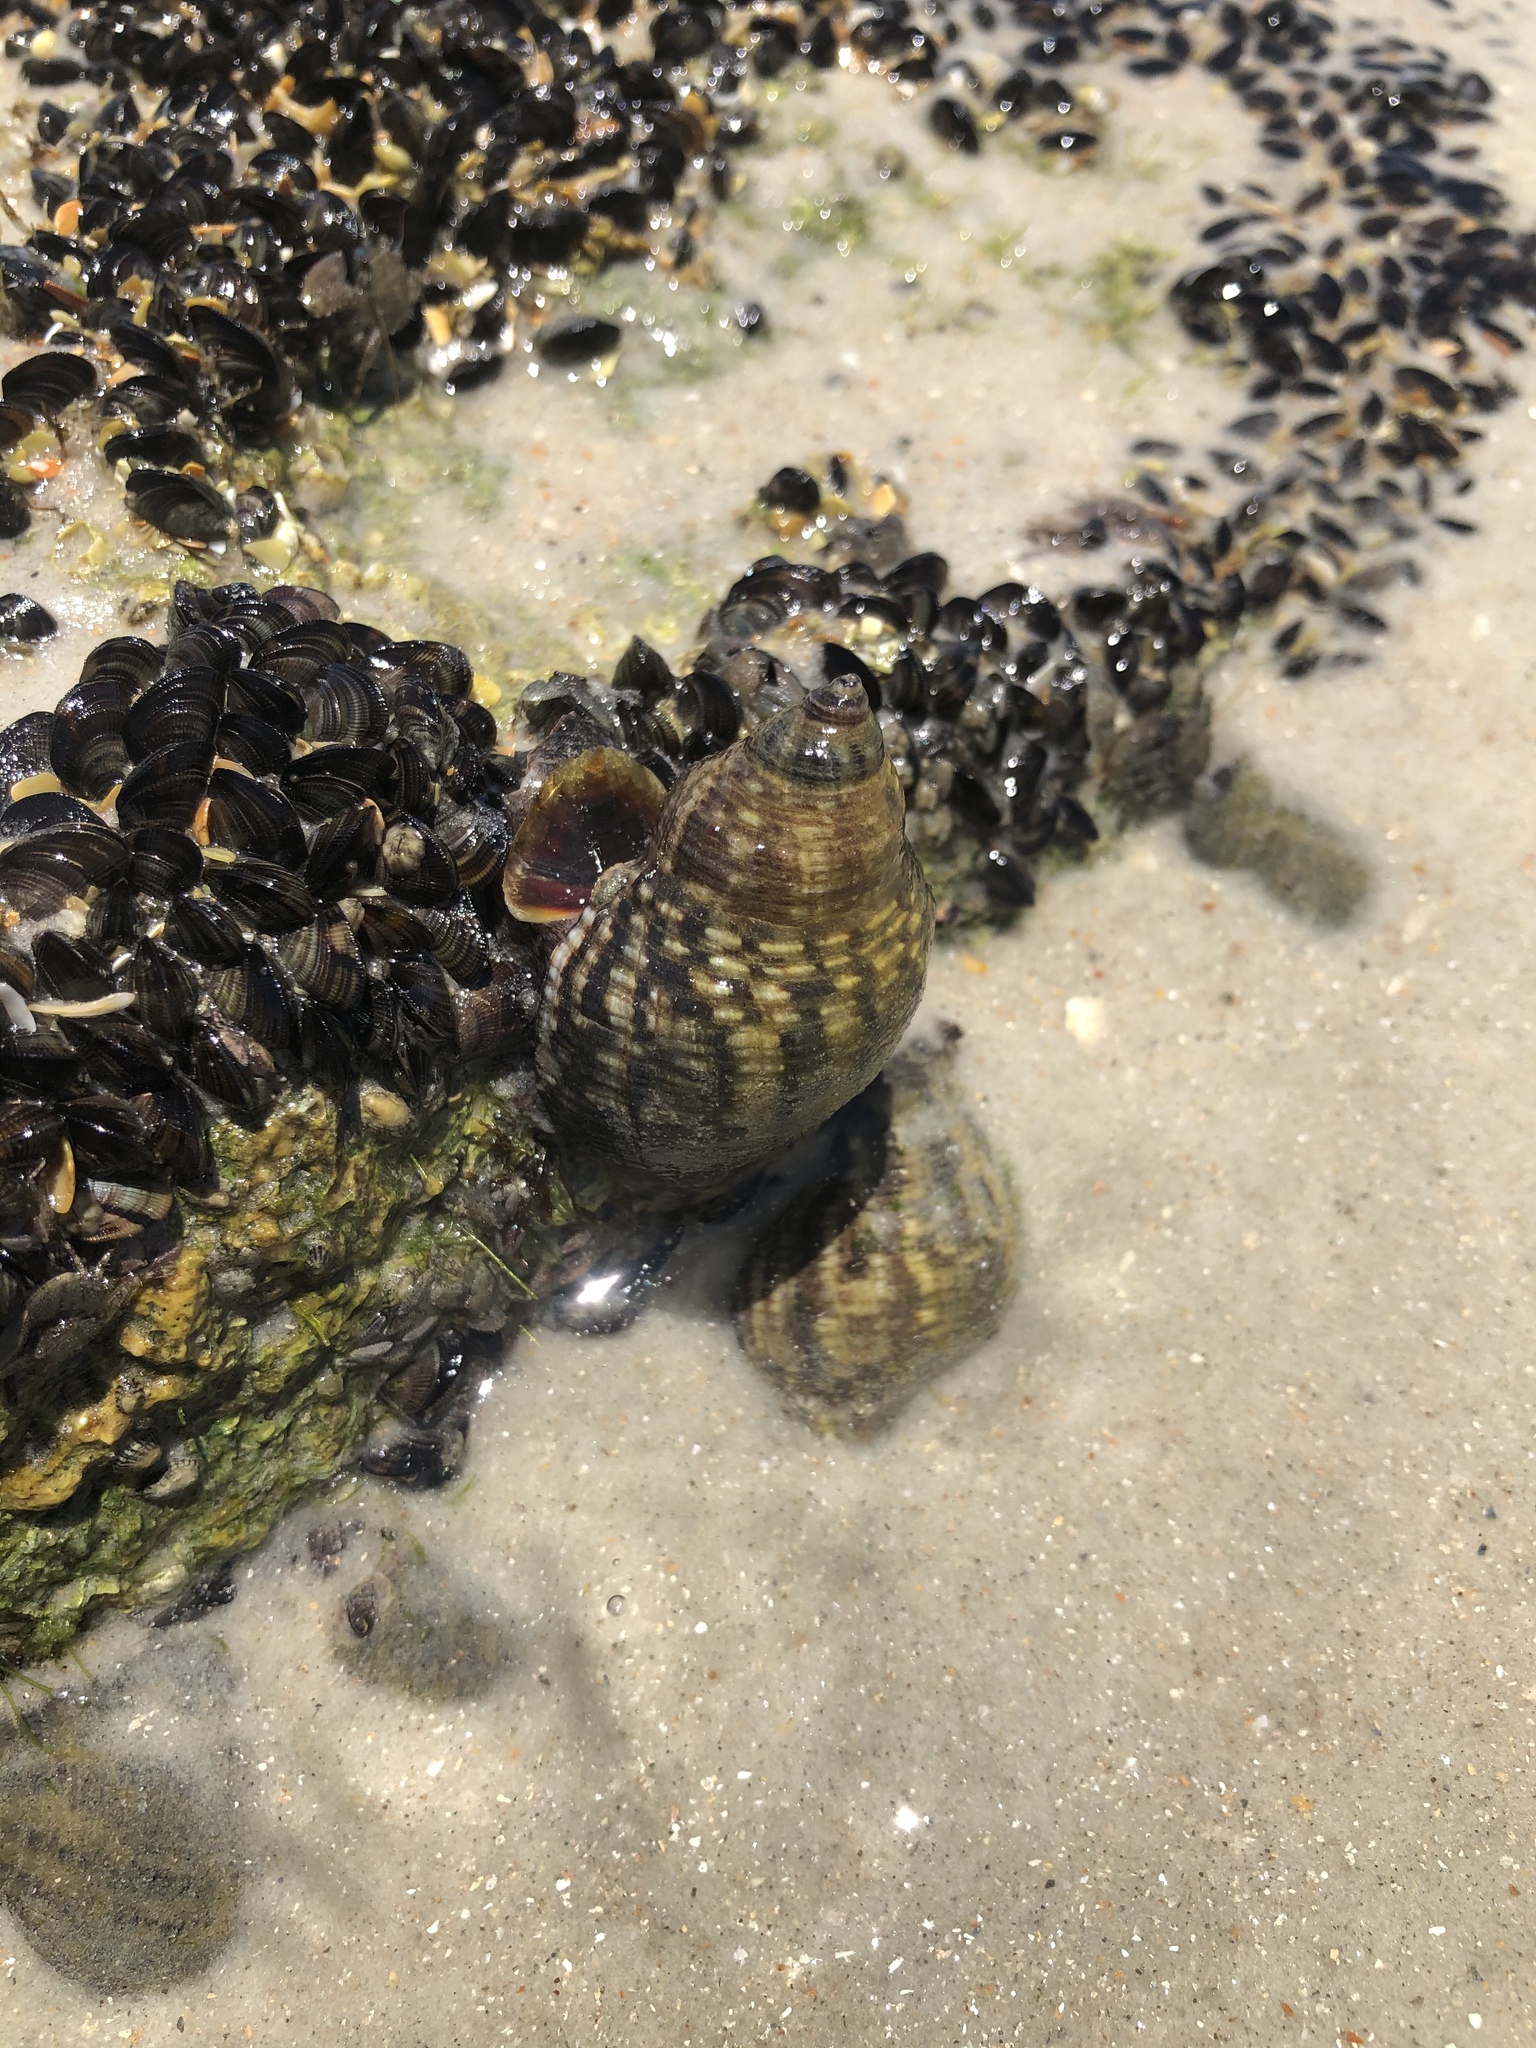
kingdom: Animalia
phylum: Mollusca
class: Gastropoda
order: Neogastropoda
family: Muricidae
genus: Stramonita
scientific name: Stramonita floridana
